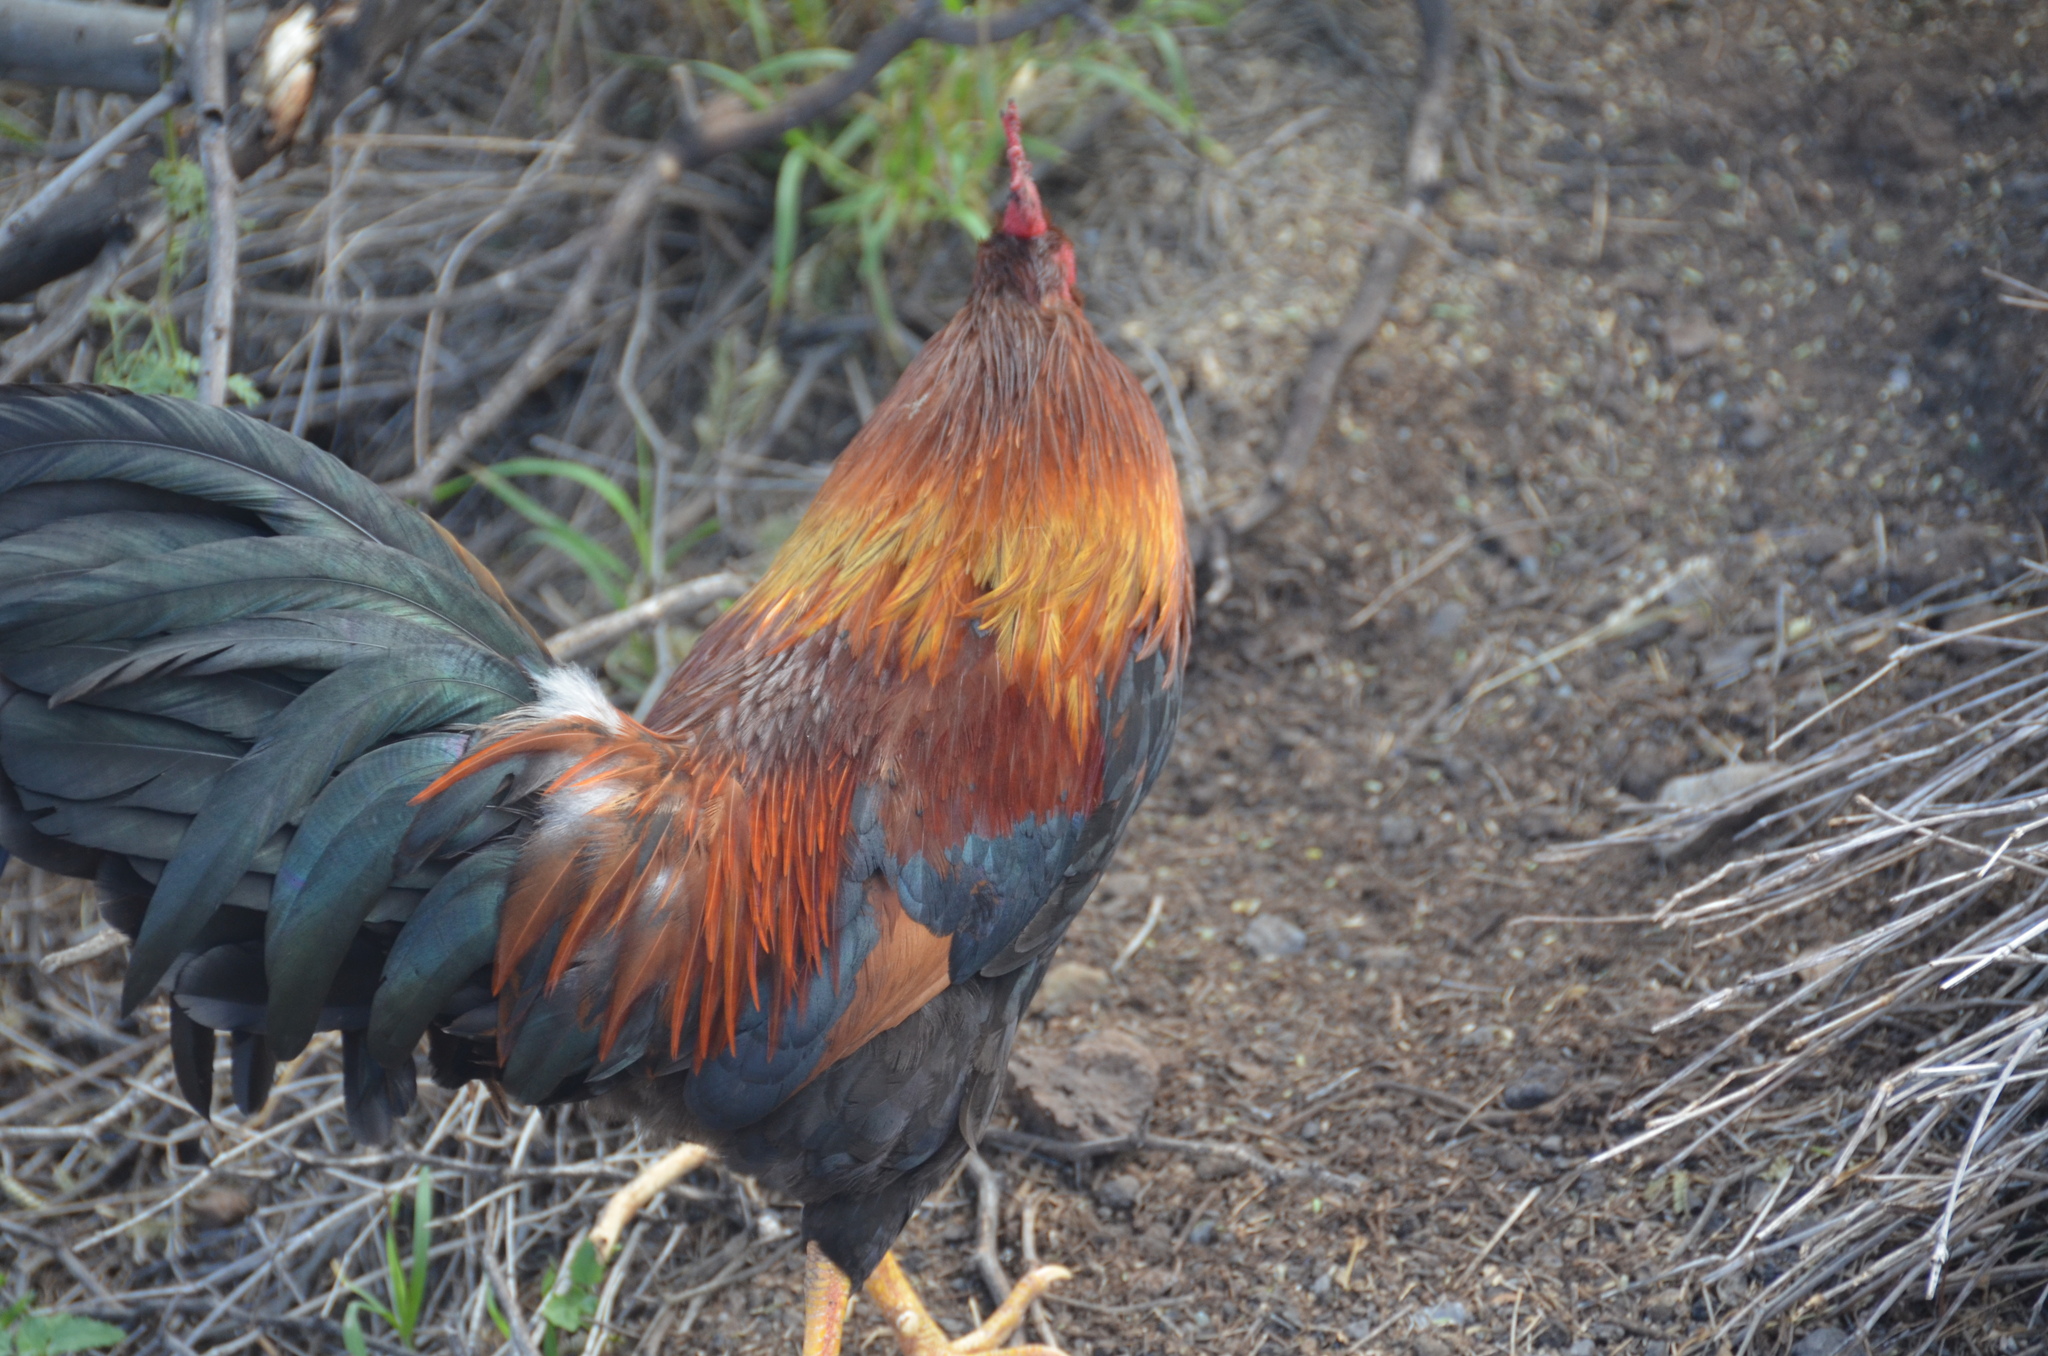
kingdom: Animalia
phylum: Chordata
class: Aves
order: Galliformes
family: Phasianidae
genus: Gallus
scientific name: Gallus gallus
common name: Red junglefowl
